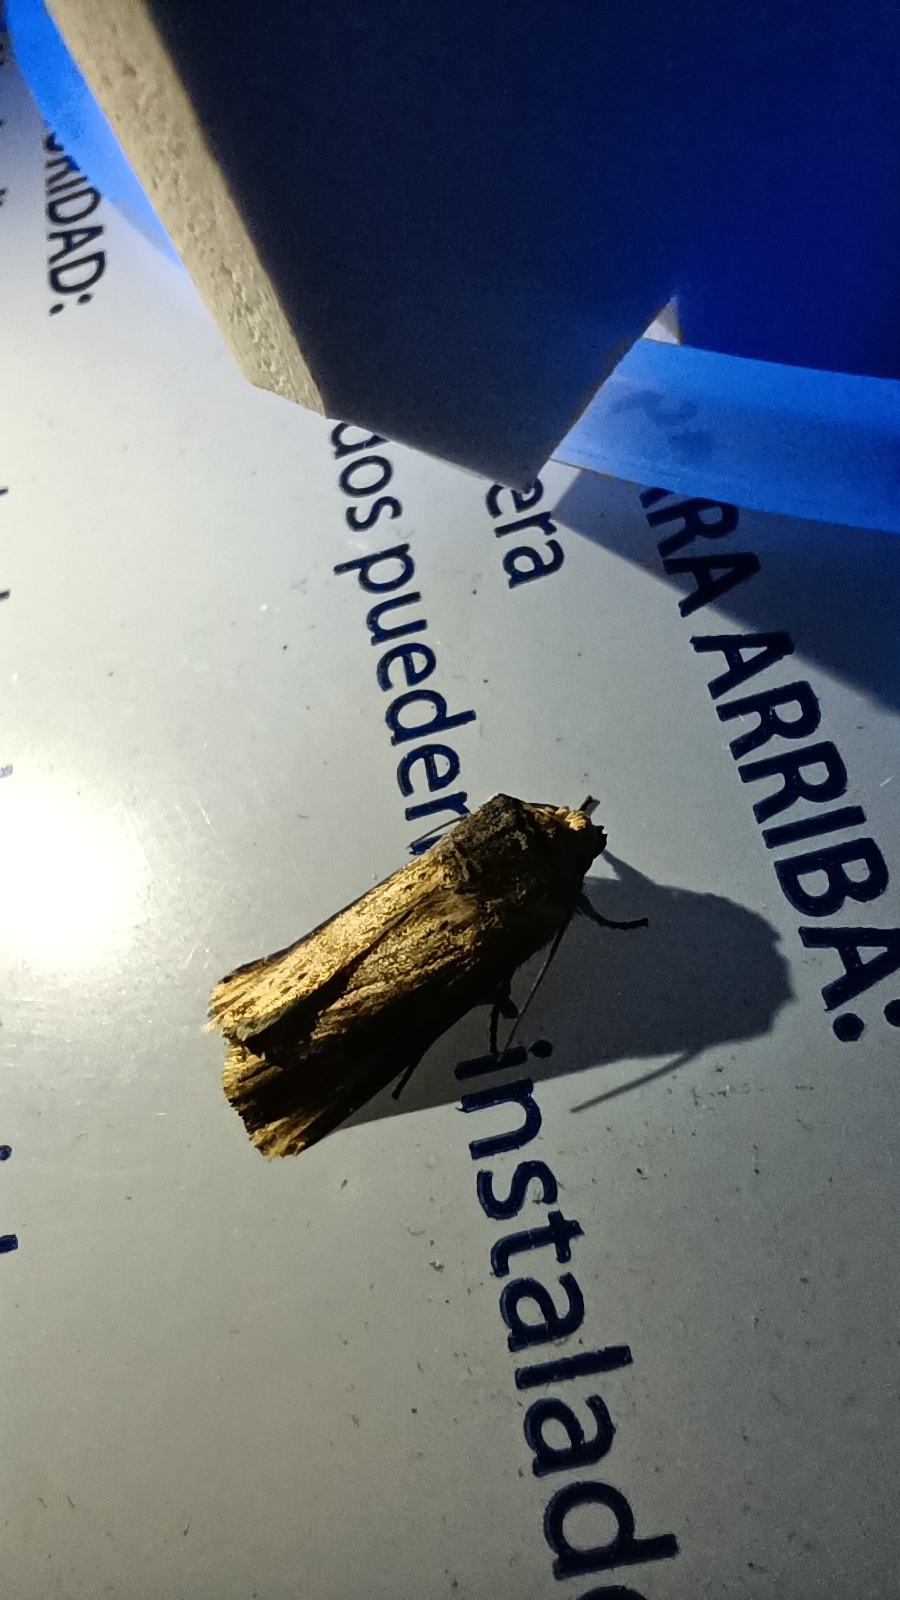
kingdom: Animalia
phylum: Arthropoda
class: Insecta
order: Lepidoptera
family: Noctuidae
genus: Axylia
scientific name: Axylia putris
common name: Flame
